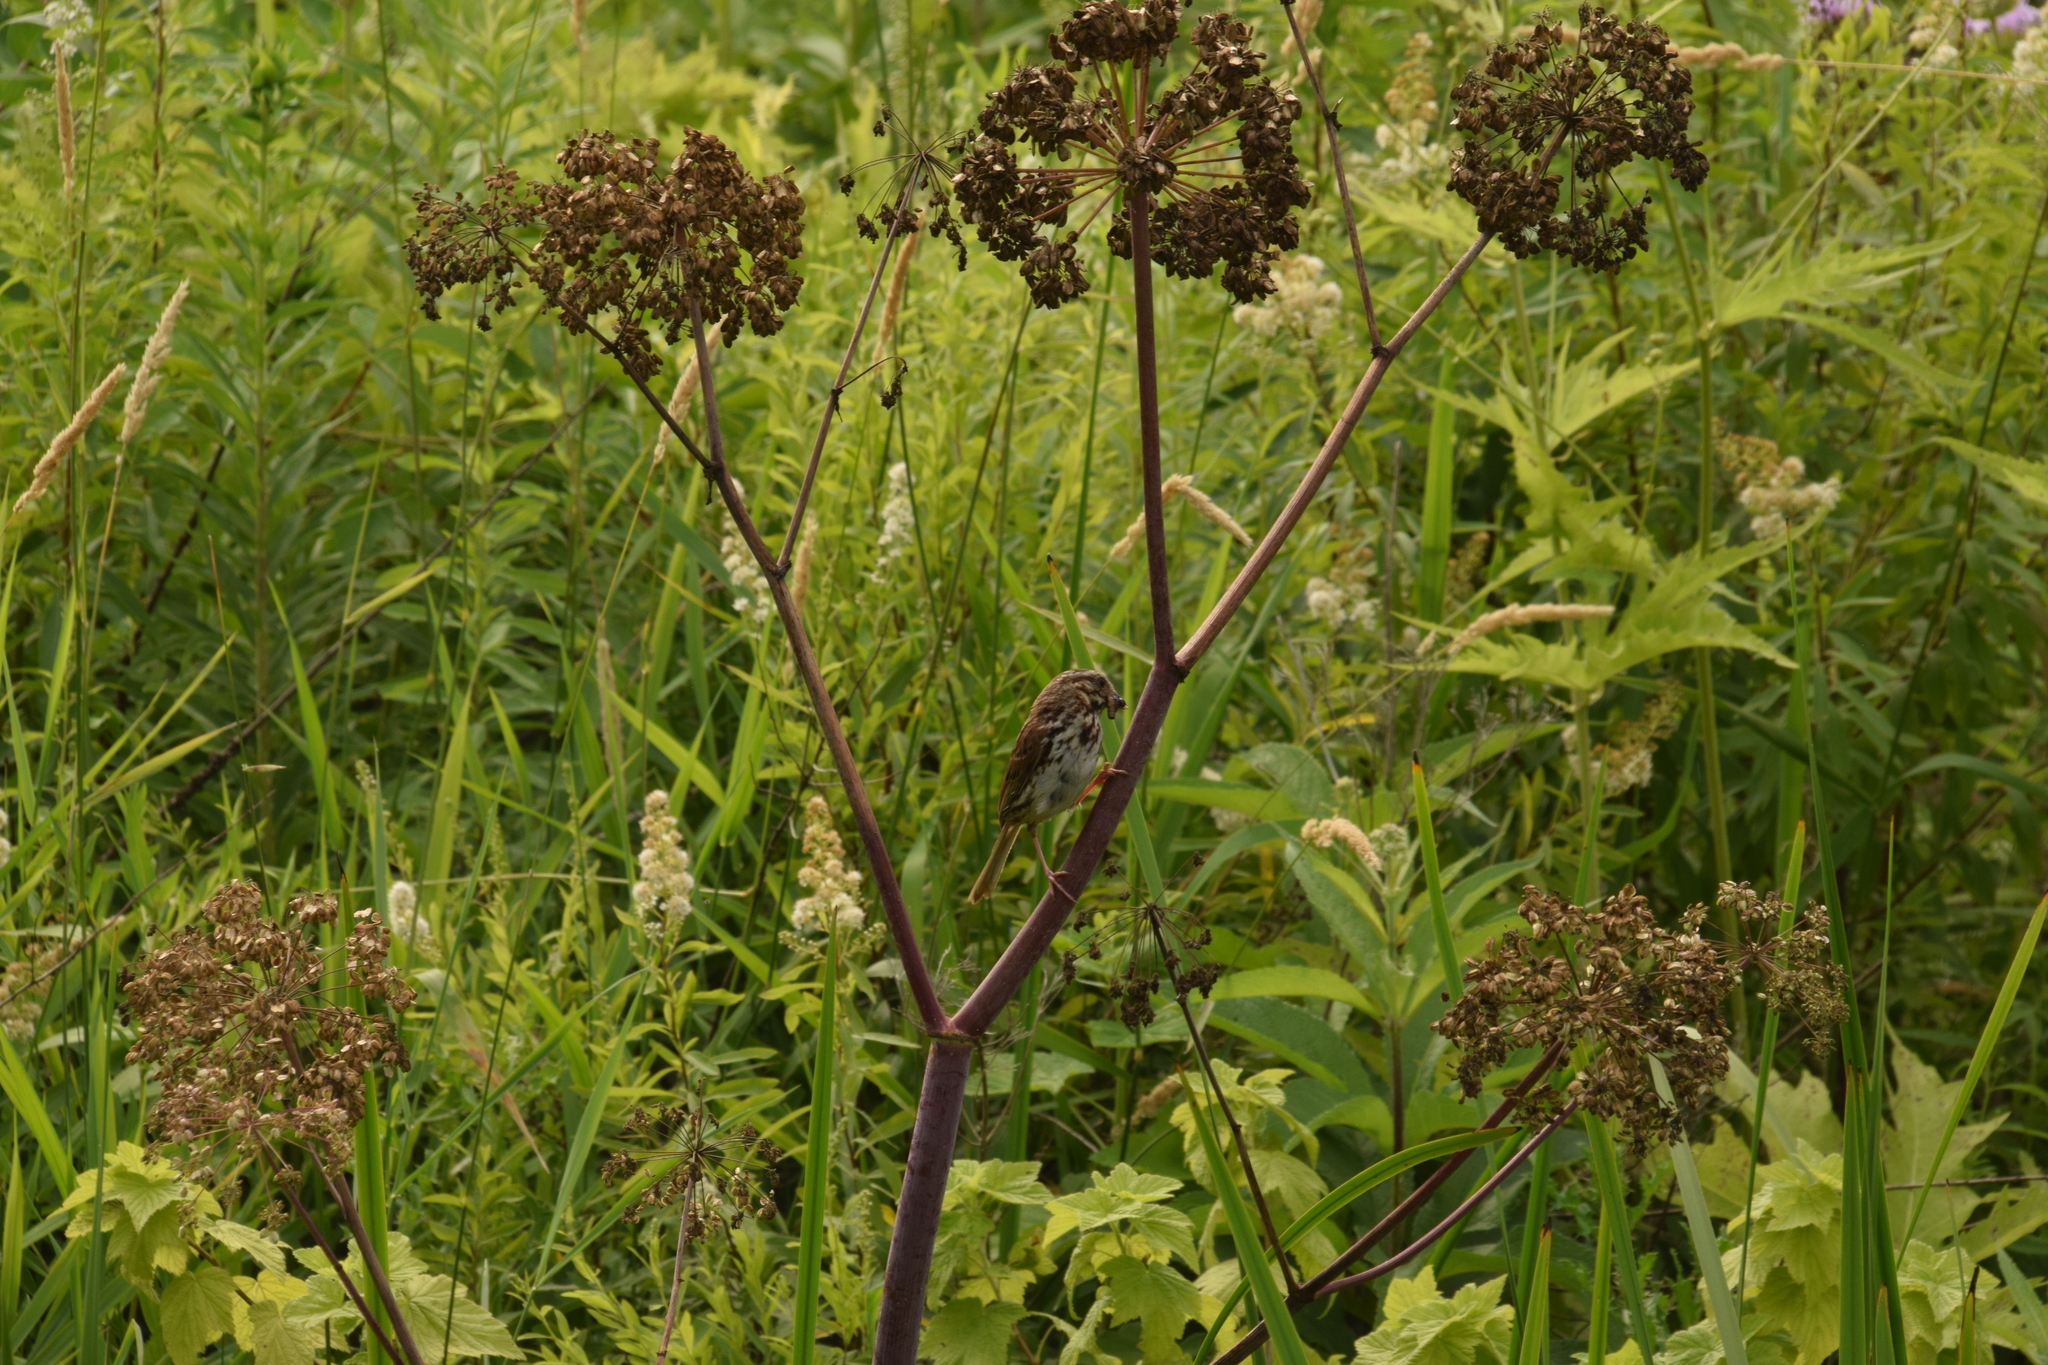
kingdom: Animalia
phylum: Chordata
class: Aves
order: Passeriformes
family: Passerellidae
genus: Melospiza
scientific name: Melospiza melodia
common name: Song sparrow
